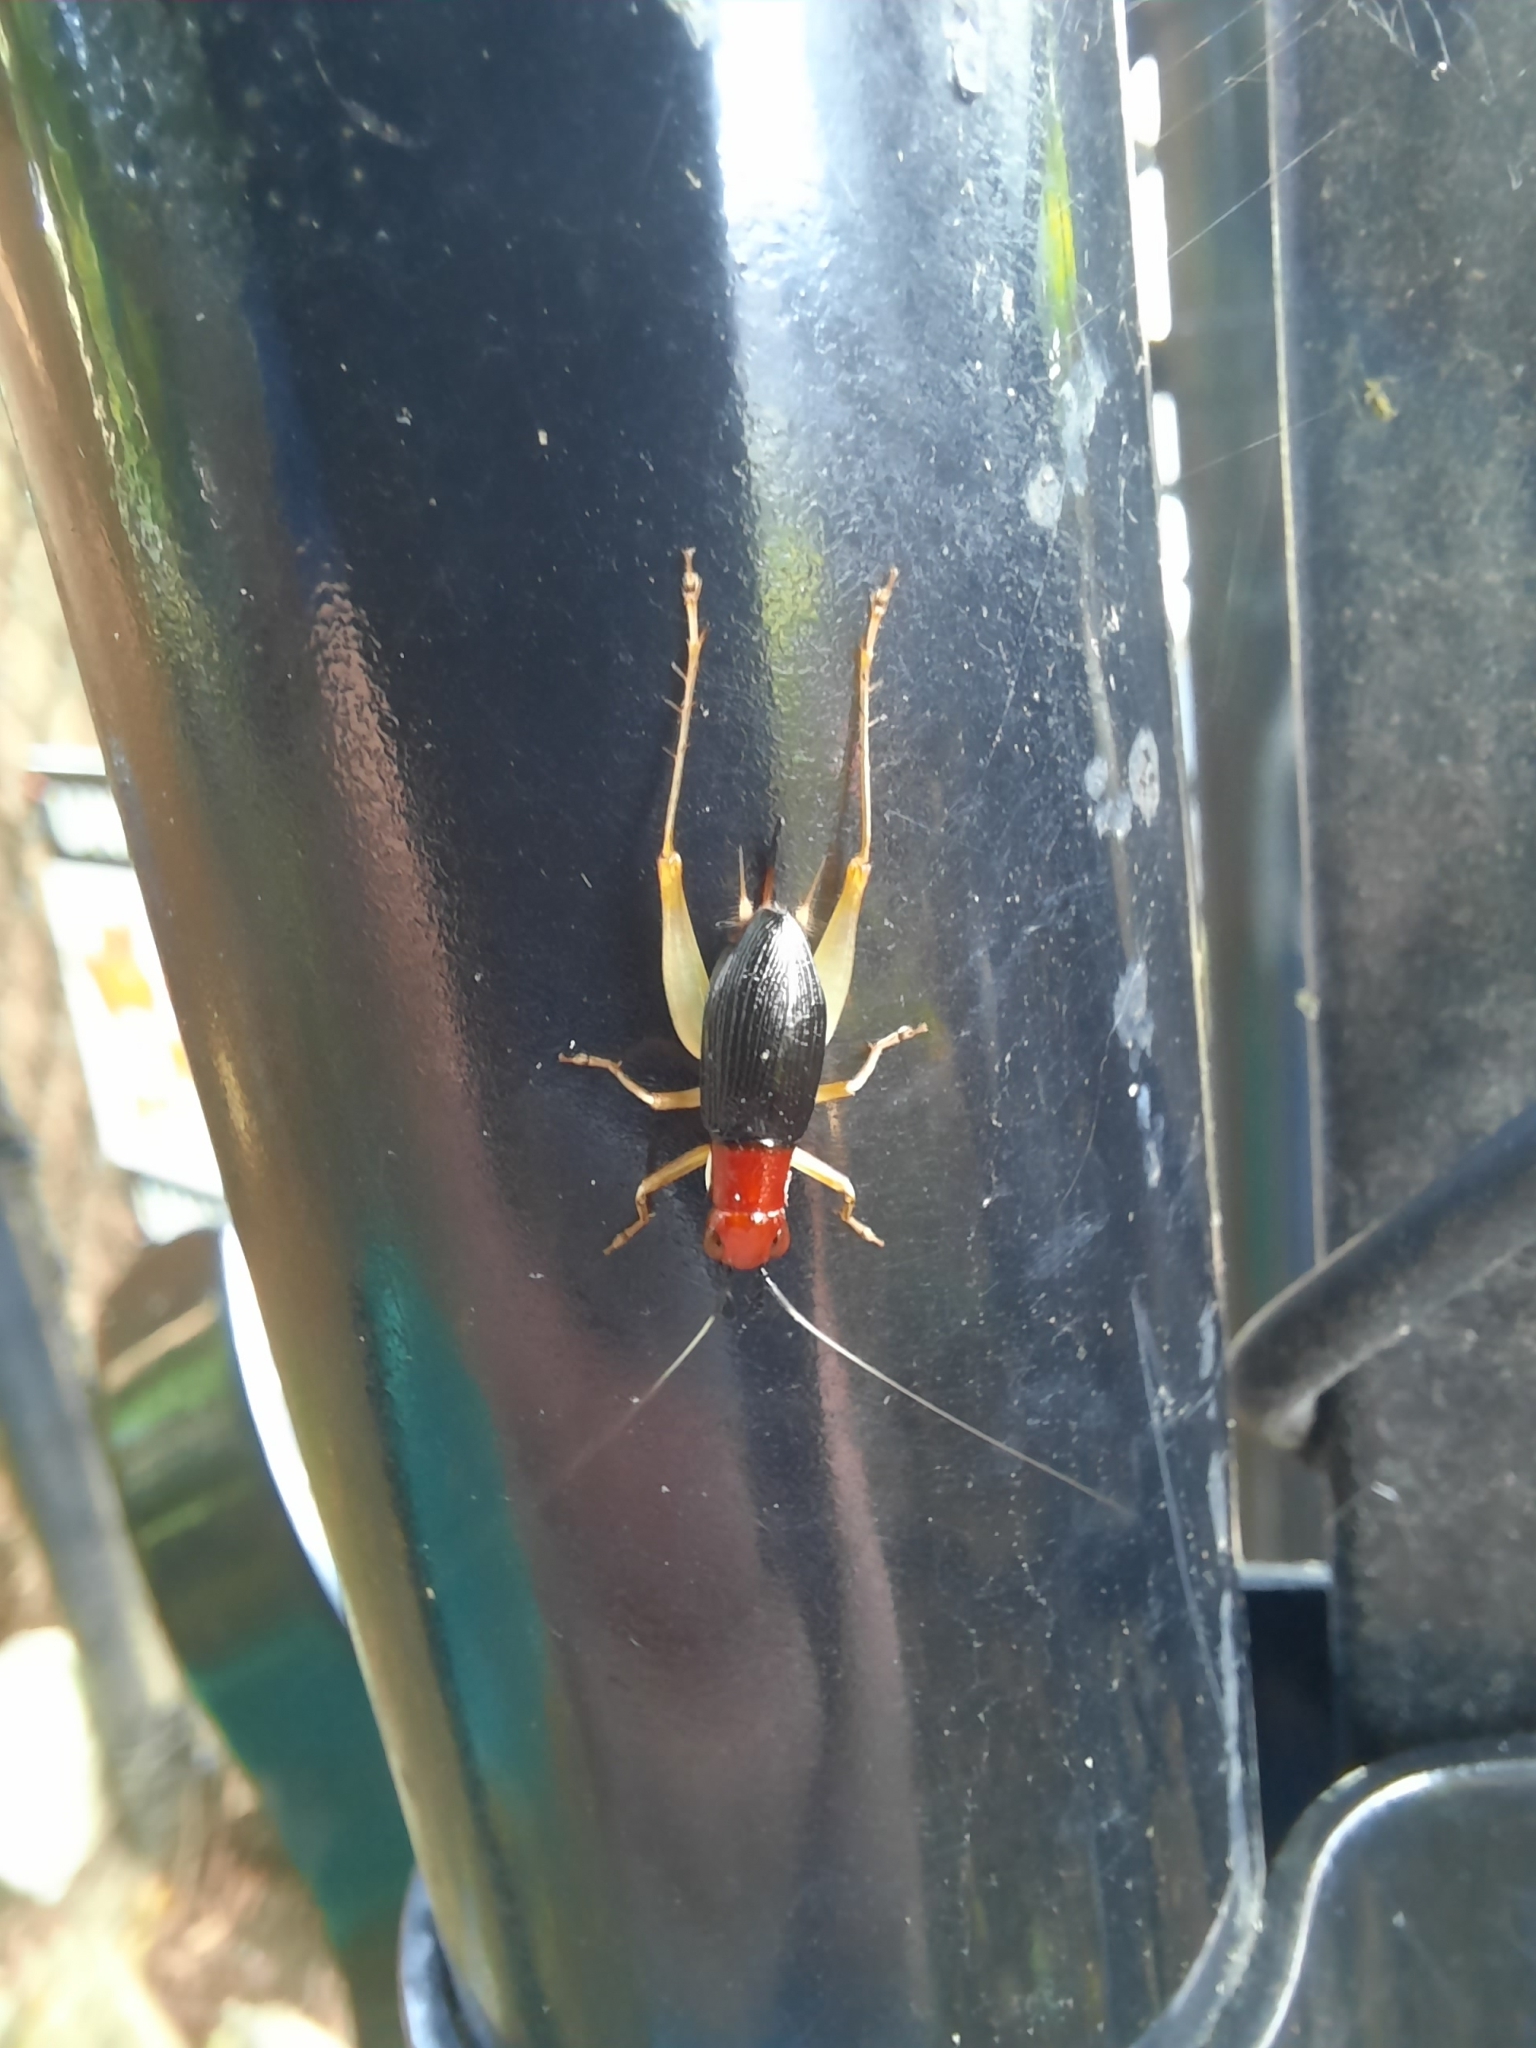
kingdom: Animalia
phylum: Arthropoda
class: Insecta
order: Orthoptera
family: Trigonidiidae
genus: Phyllopalpus
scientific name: Phyllopalpus pulchellus
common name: Handsome trig
